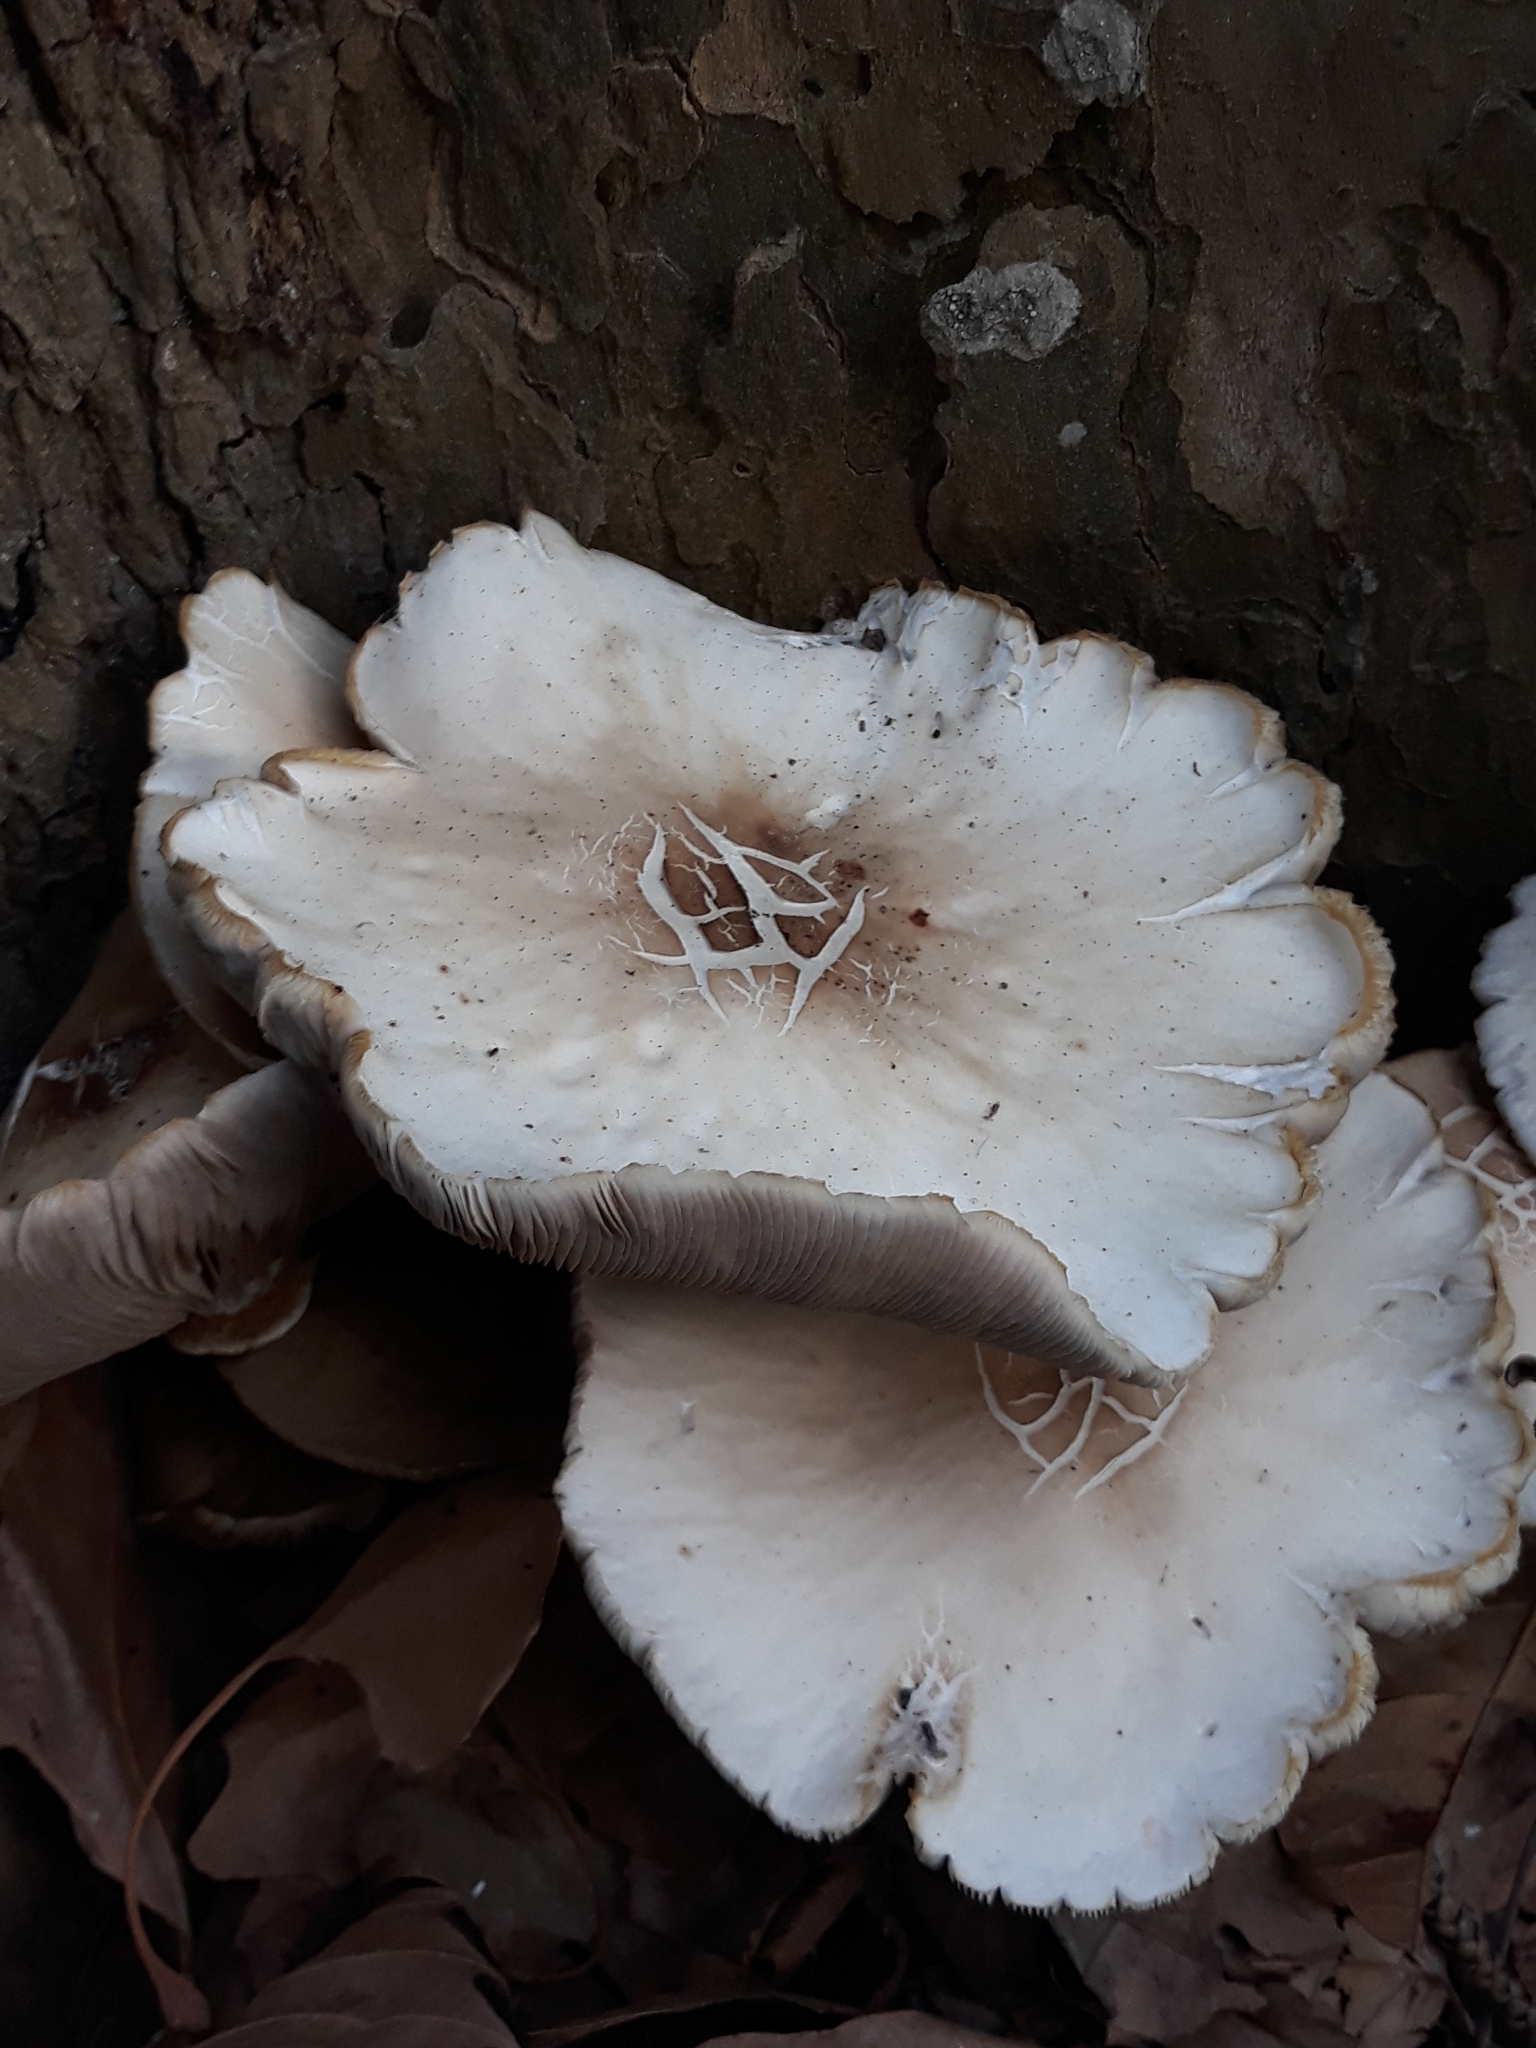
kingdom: Fungi
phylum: Basidiomycota
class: Agaricomycetes
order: Agaricales
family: Tubariaceae
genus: Cyclocybe
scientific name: Cyclocybe cylindracea
